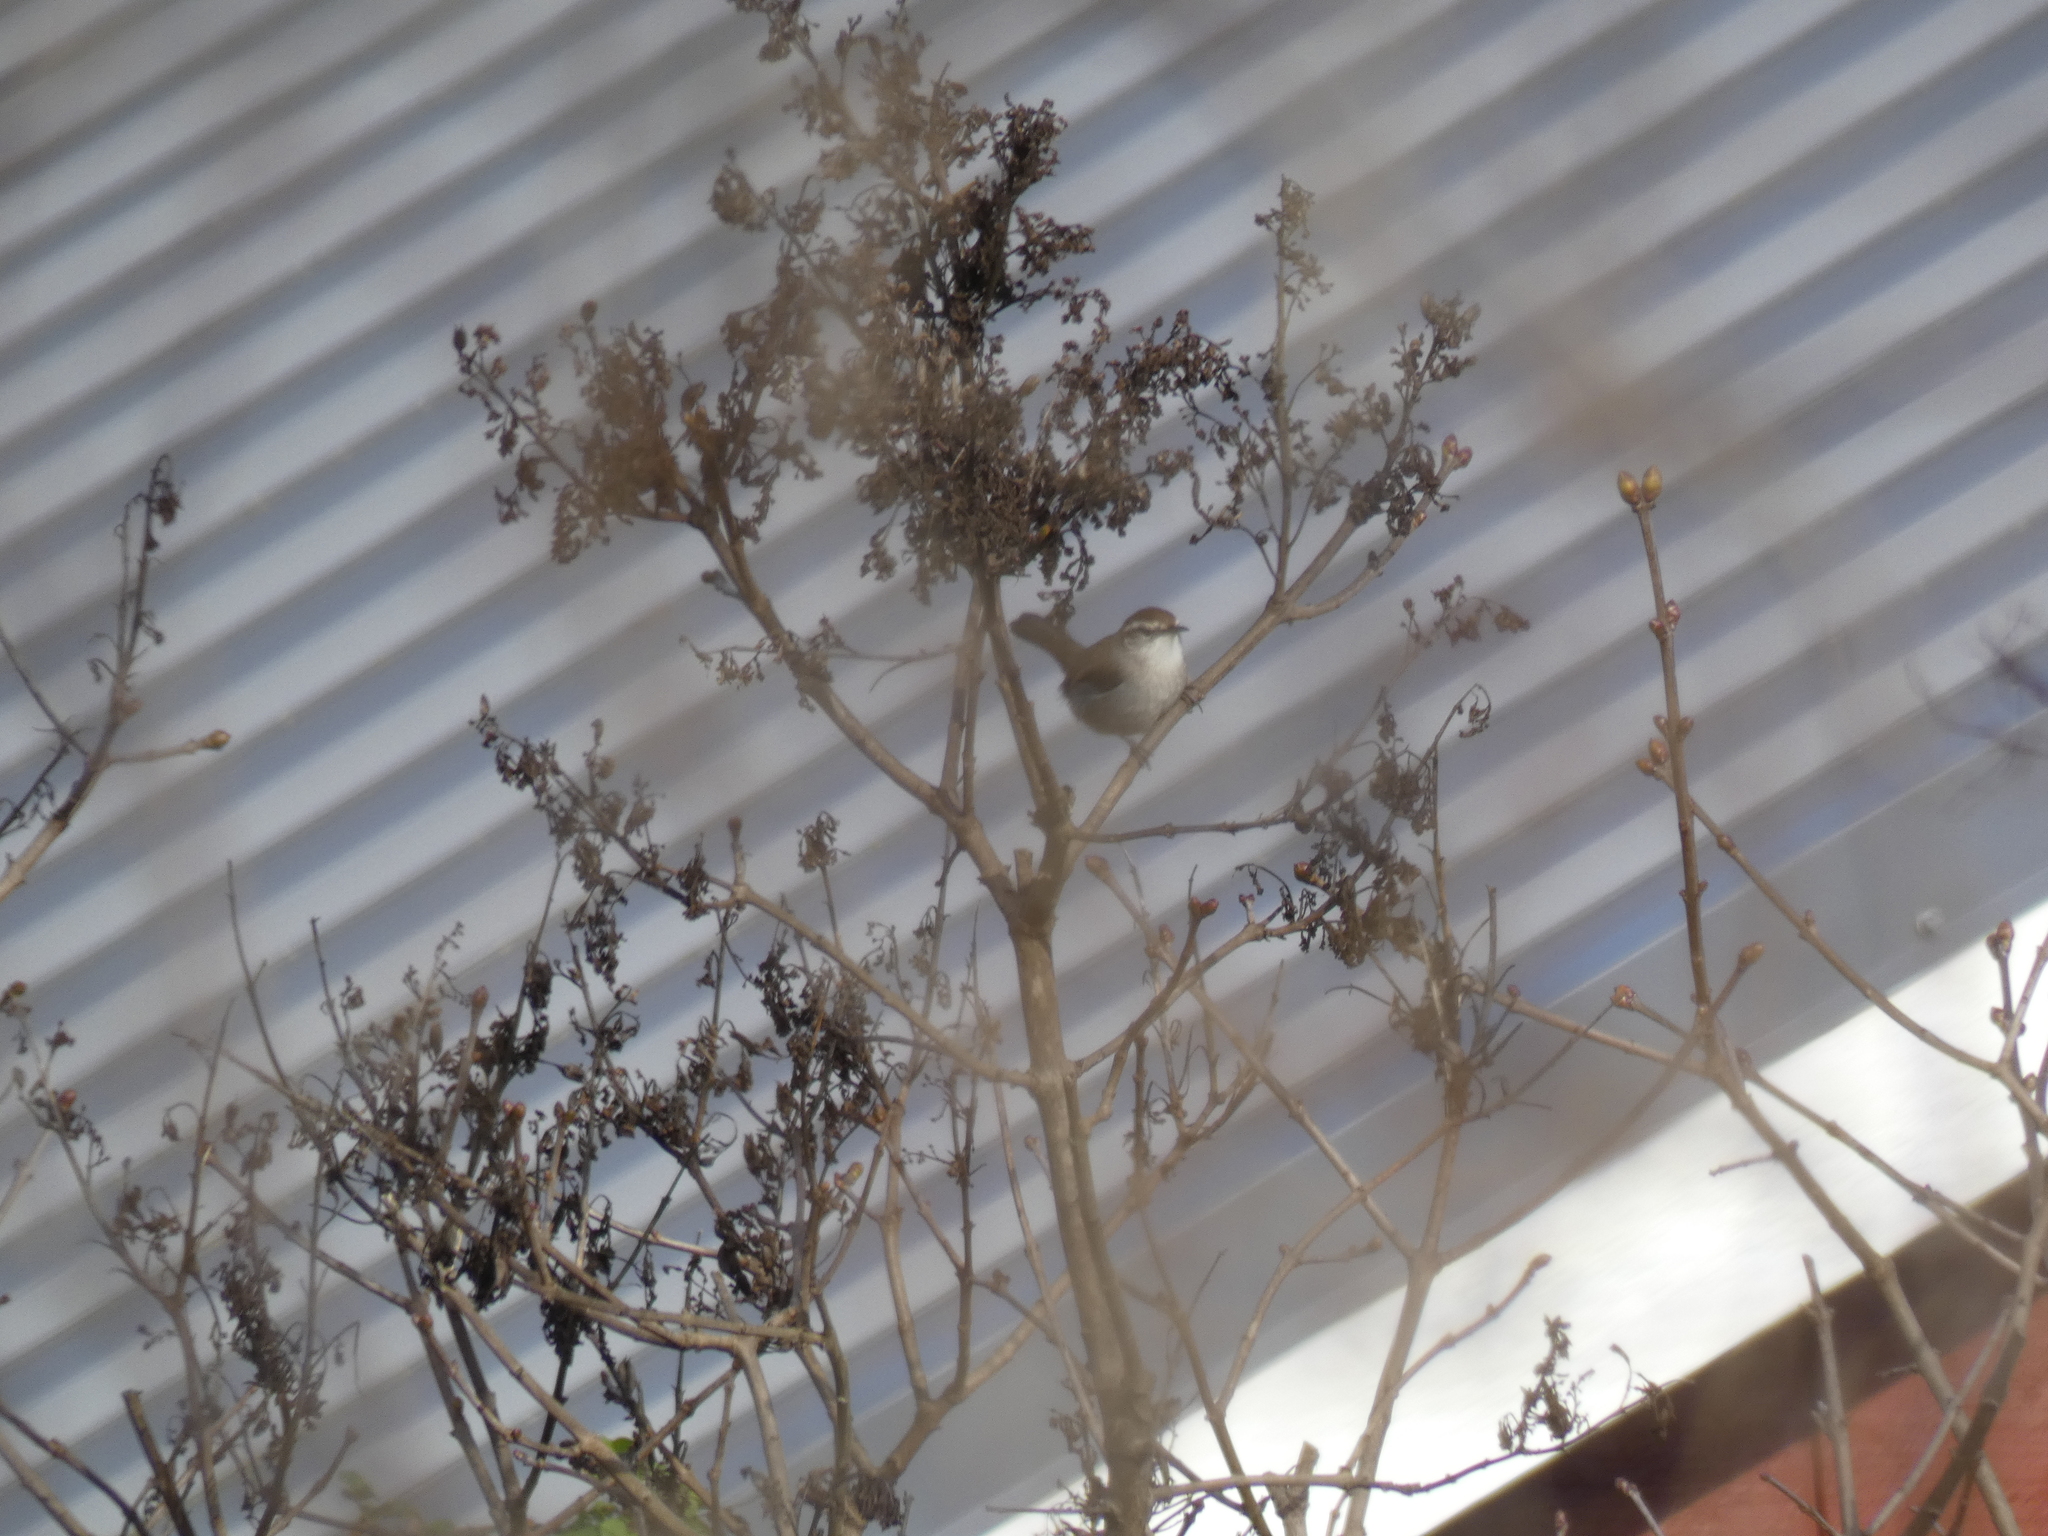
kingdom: Animalia
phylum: Chordata
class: Aves
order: Passeriformes
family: Troglodytidae
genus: Thryomanes
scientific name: Thryomanes bewickii
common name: Bewick's wren
